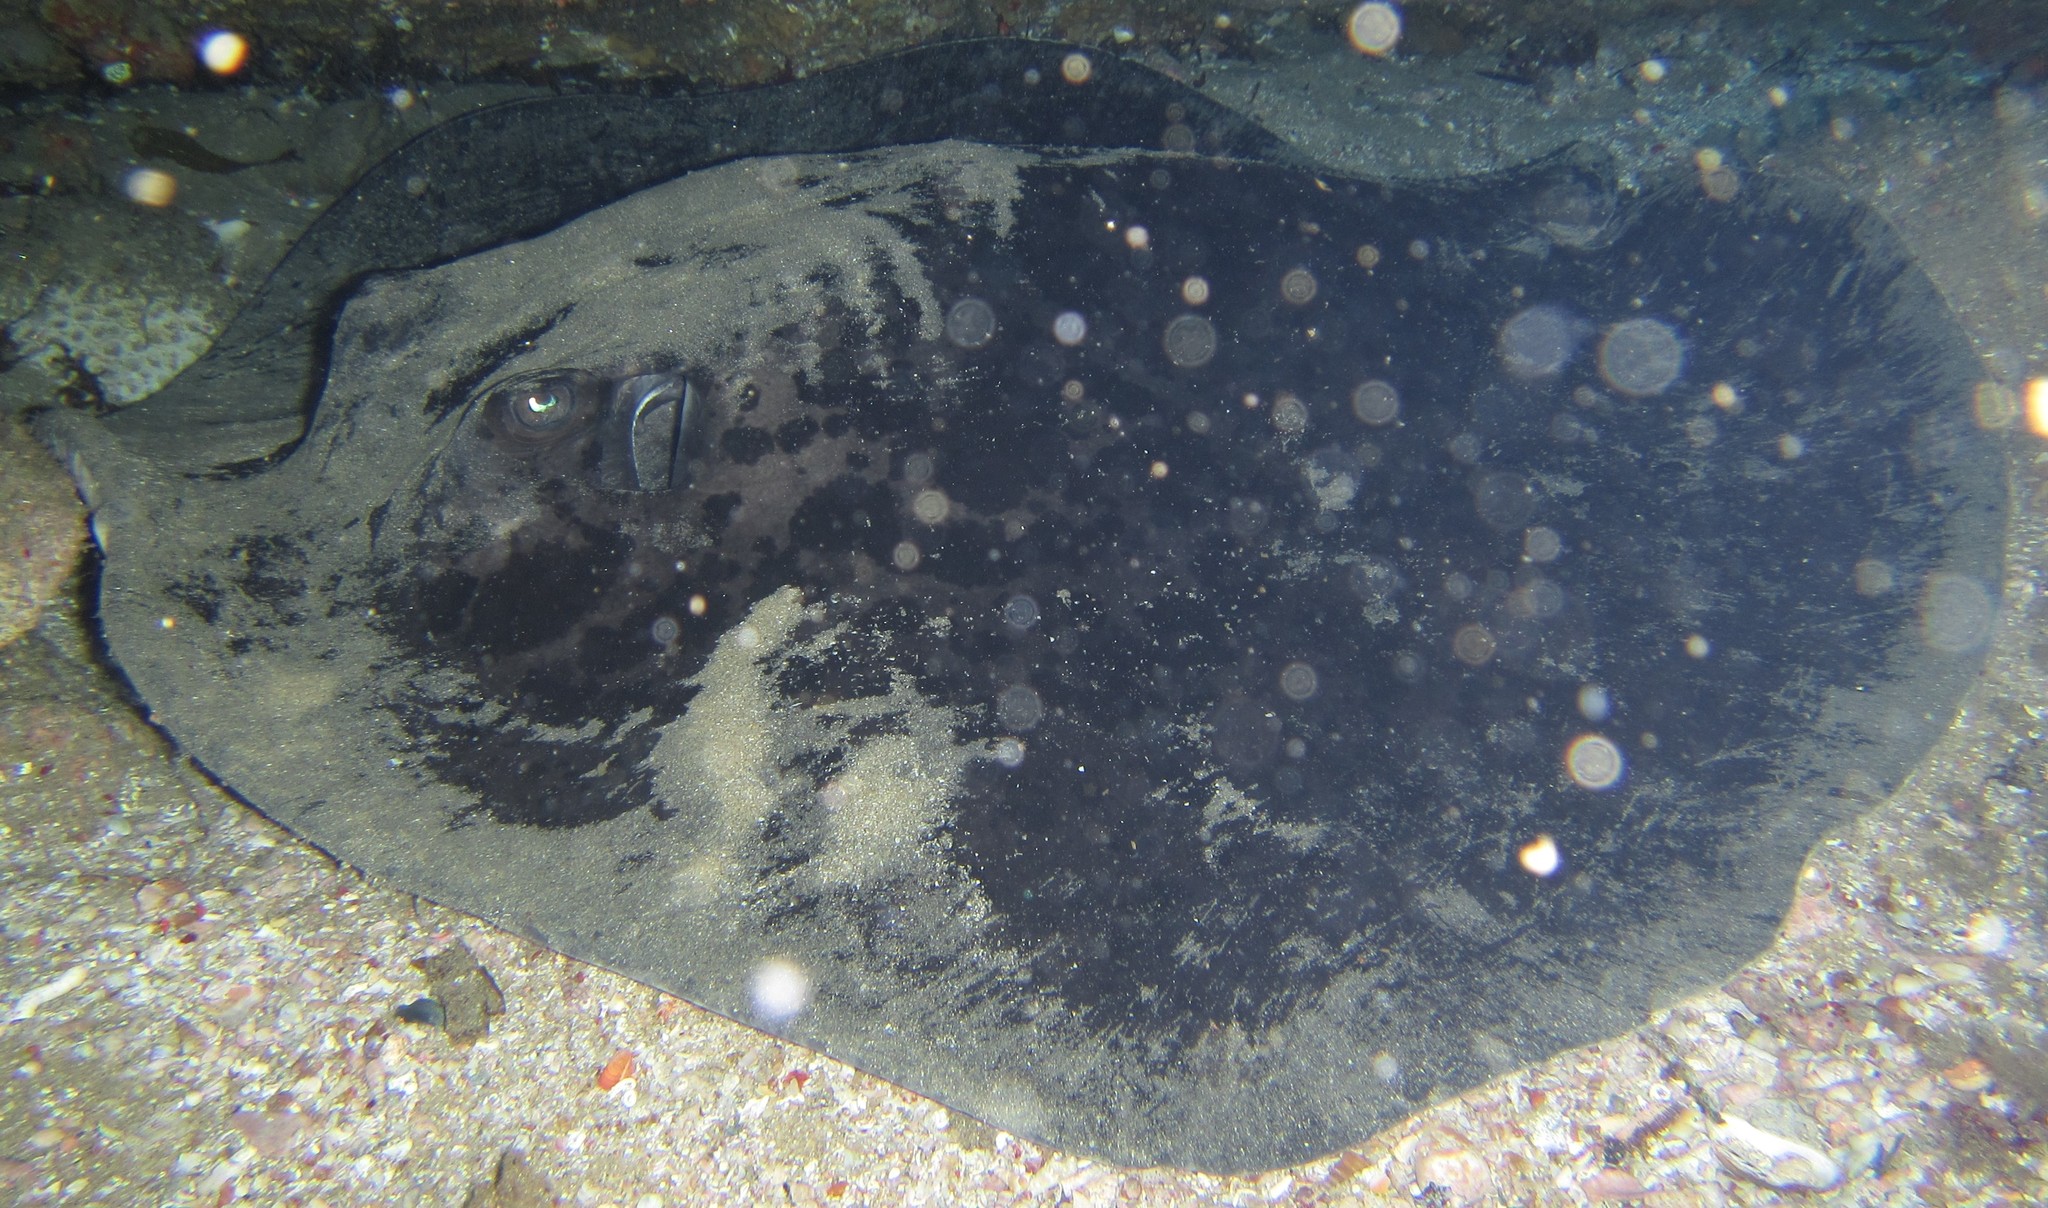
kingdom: Animalia
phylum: Chordata
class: Elasmobranchii
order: Myliobatiformes
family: Dasyatidae
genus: Taeniurops
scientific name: Taeniurops meyeni
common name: Black-blotched stingray
